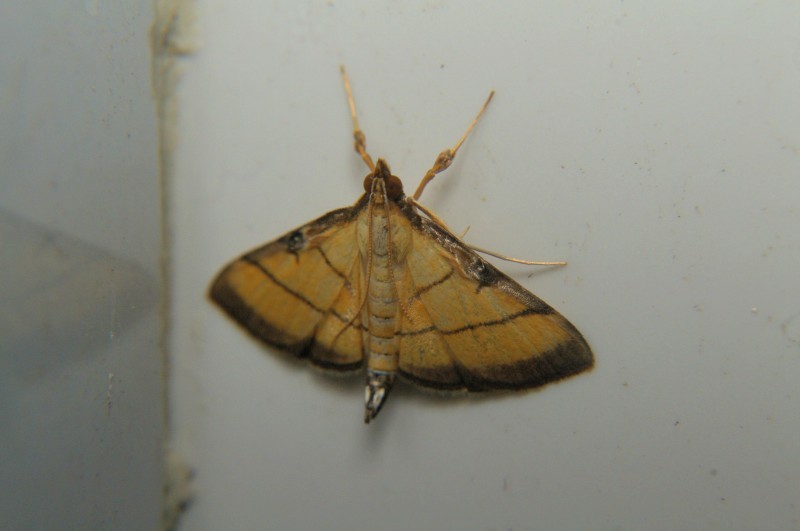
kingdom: Animalia
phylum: Arthropoda
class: Insecta
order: Lepidoptera
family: Crambidae
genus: Cnaphalocrocis
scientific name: Cnaphalocrocis medinalis
